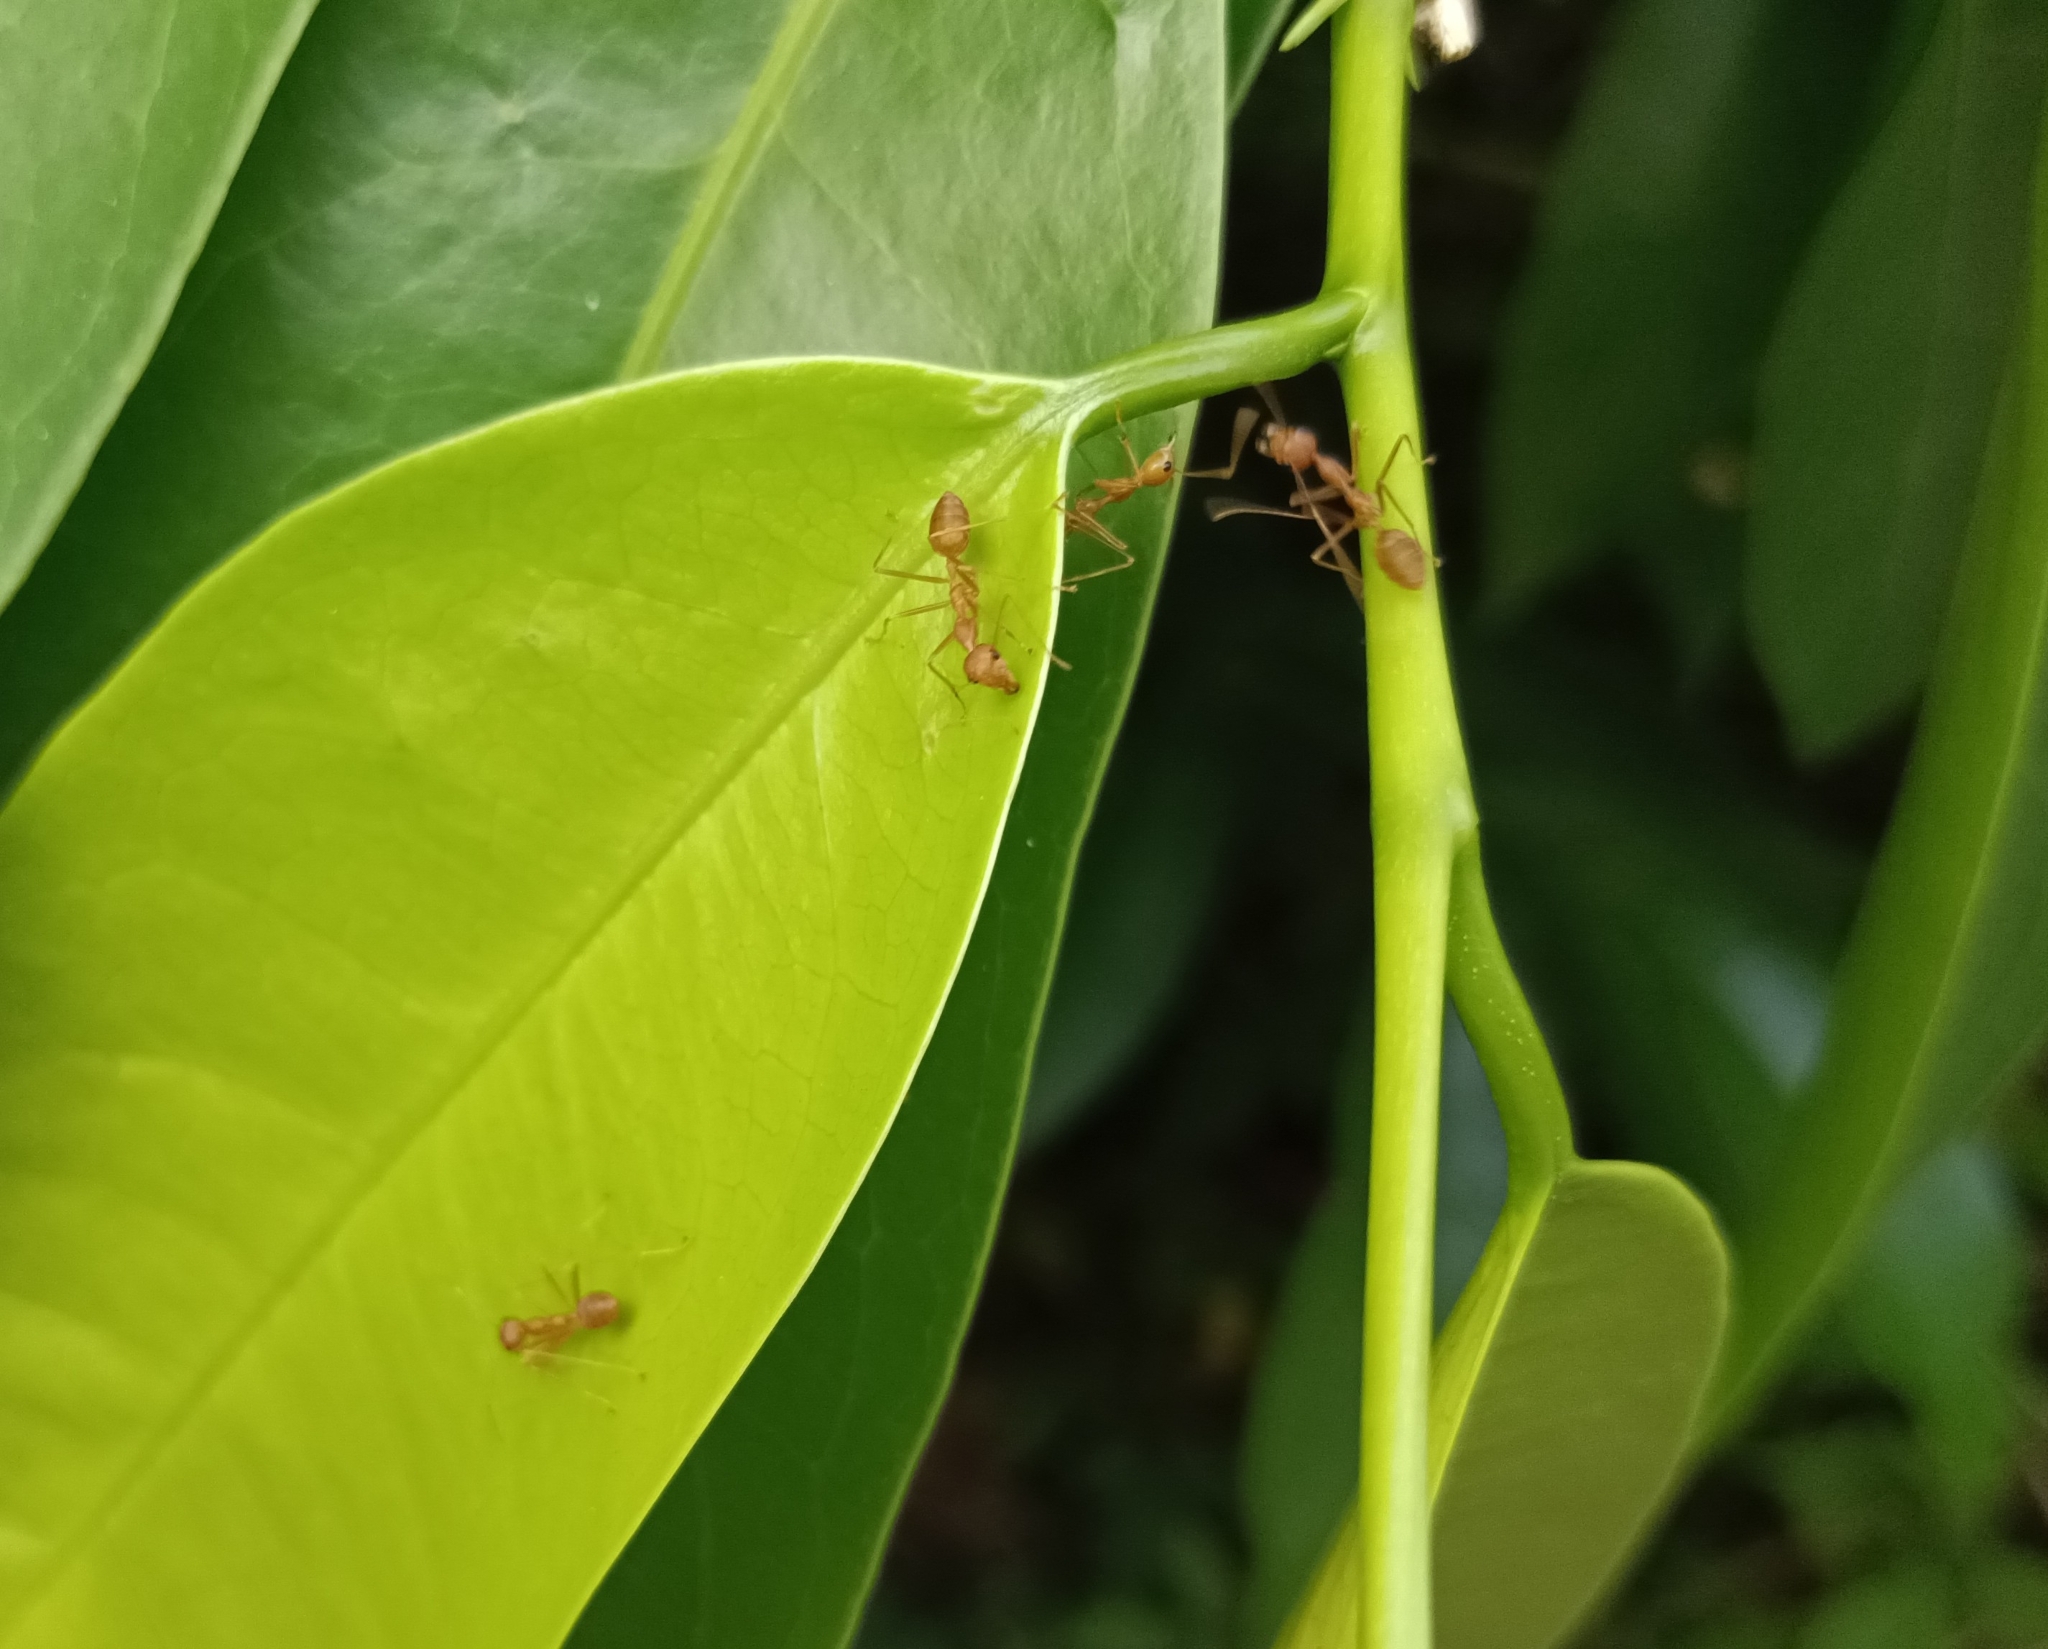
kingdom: Animalia
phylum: Arthropoda
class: Insecta
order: Hymenoptera
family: Formicidae
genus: Oecophylla
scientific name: Oecophylla smaragdina
